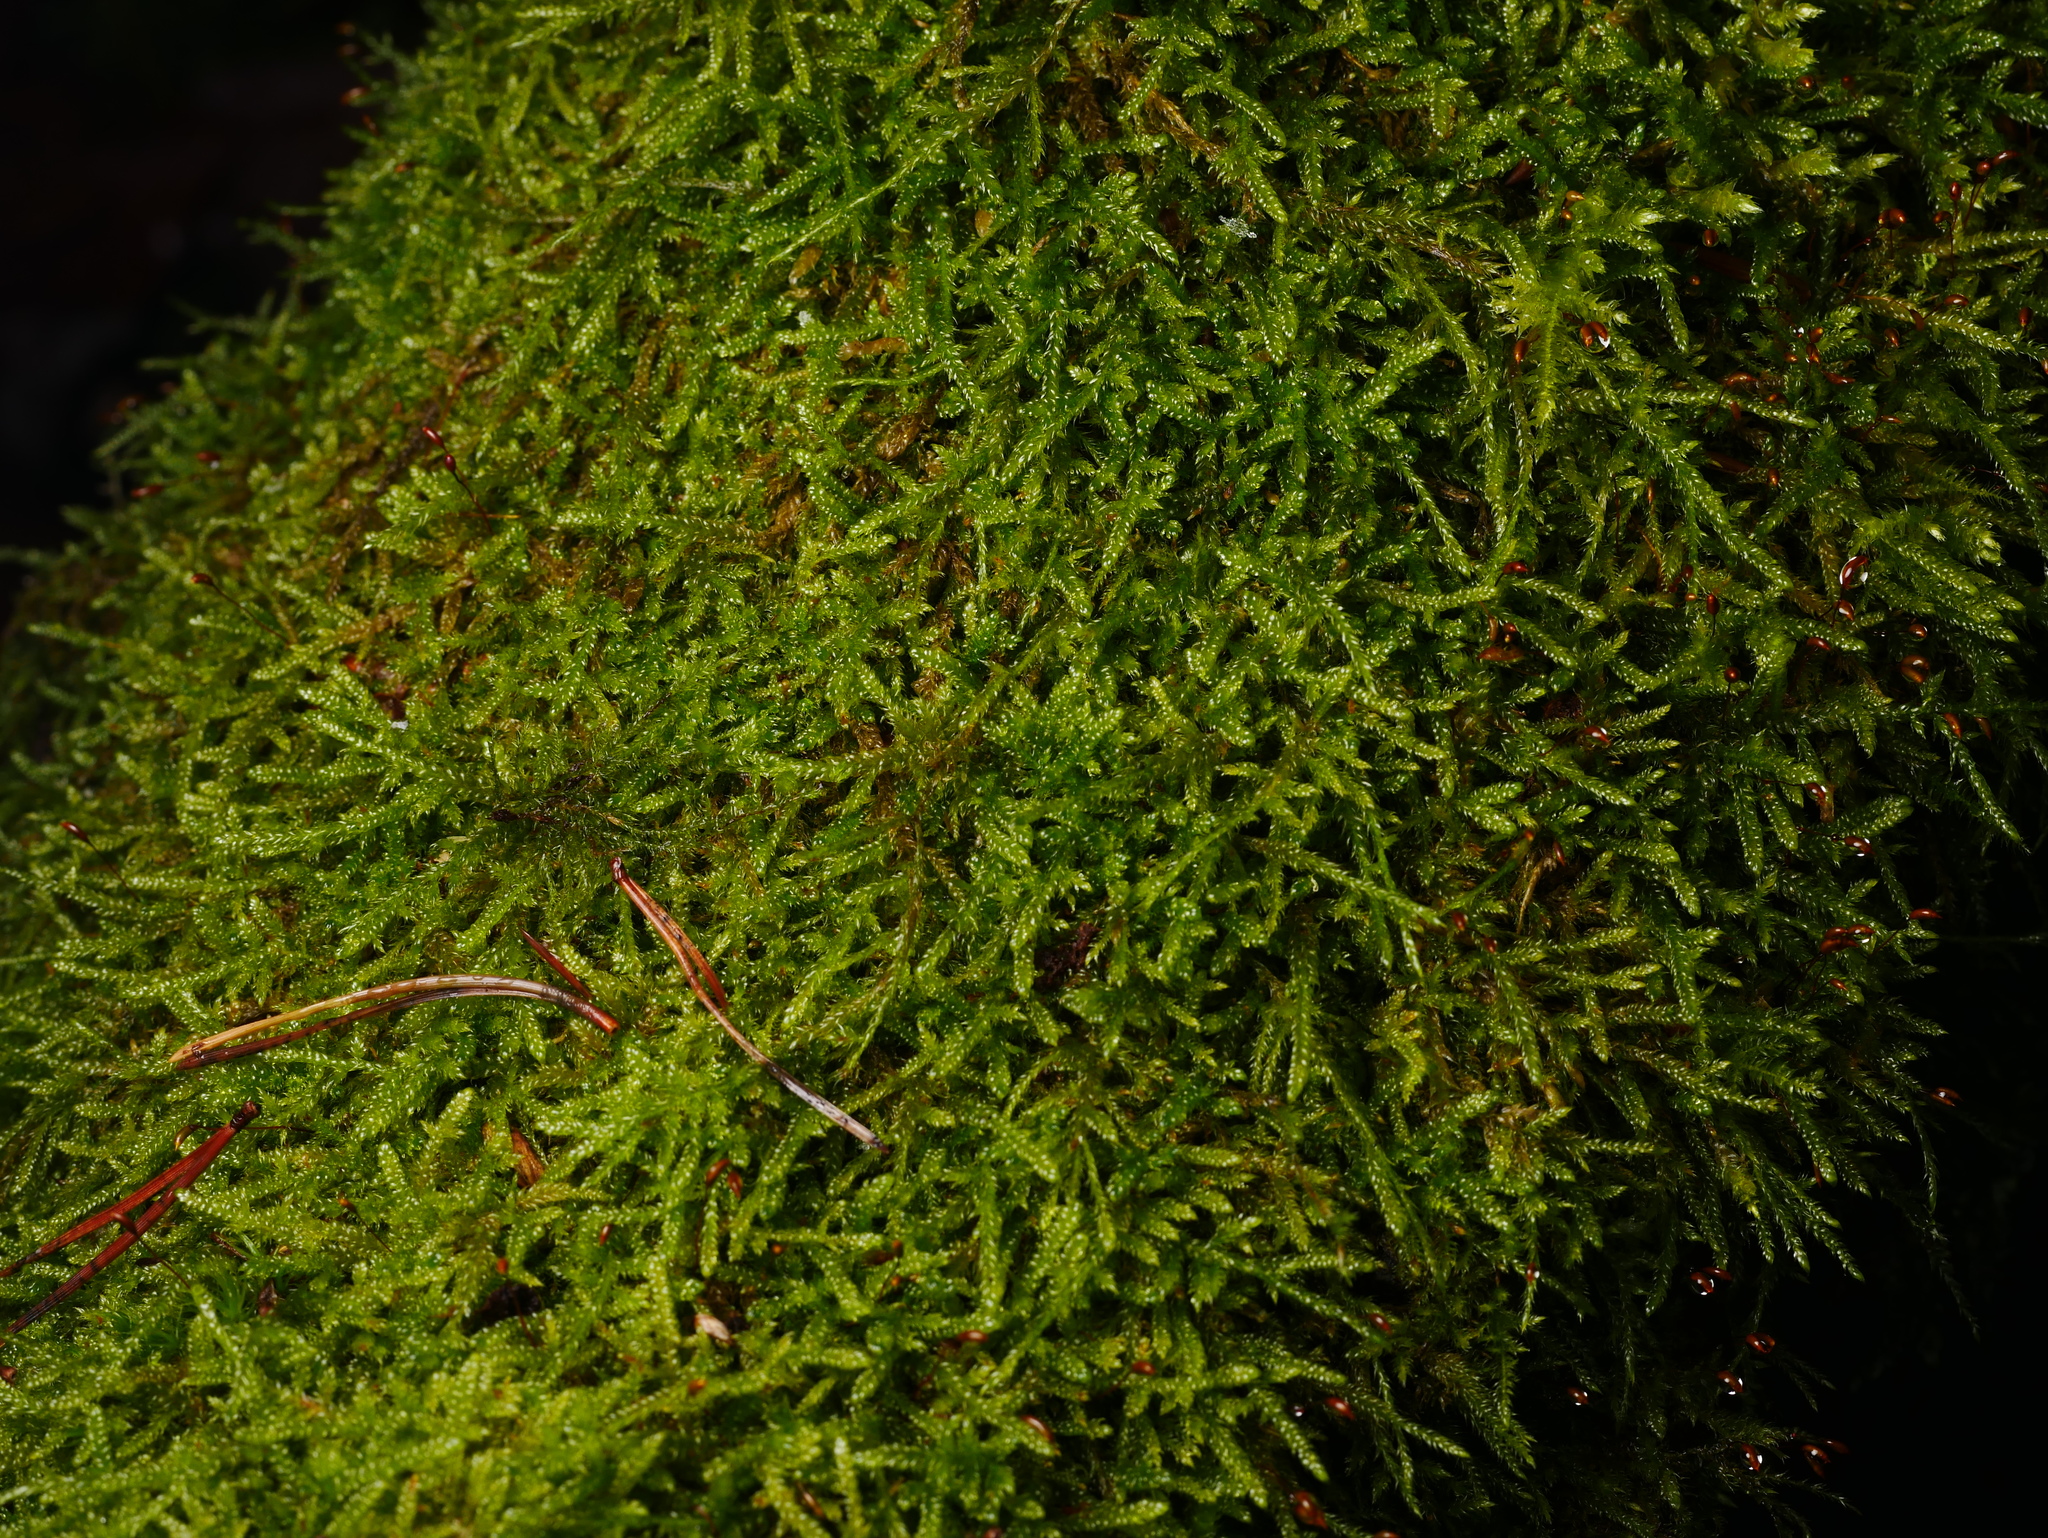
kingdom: Plantae
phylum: Bryophyta
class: Bryopsida
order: Hypnales
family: Hypnaceae
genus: Hypnum
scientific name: Hypnum cupressiforme
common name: Cypress-leaved plait-moss
